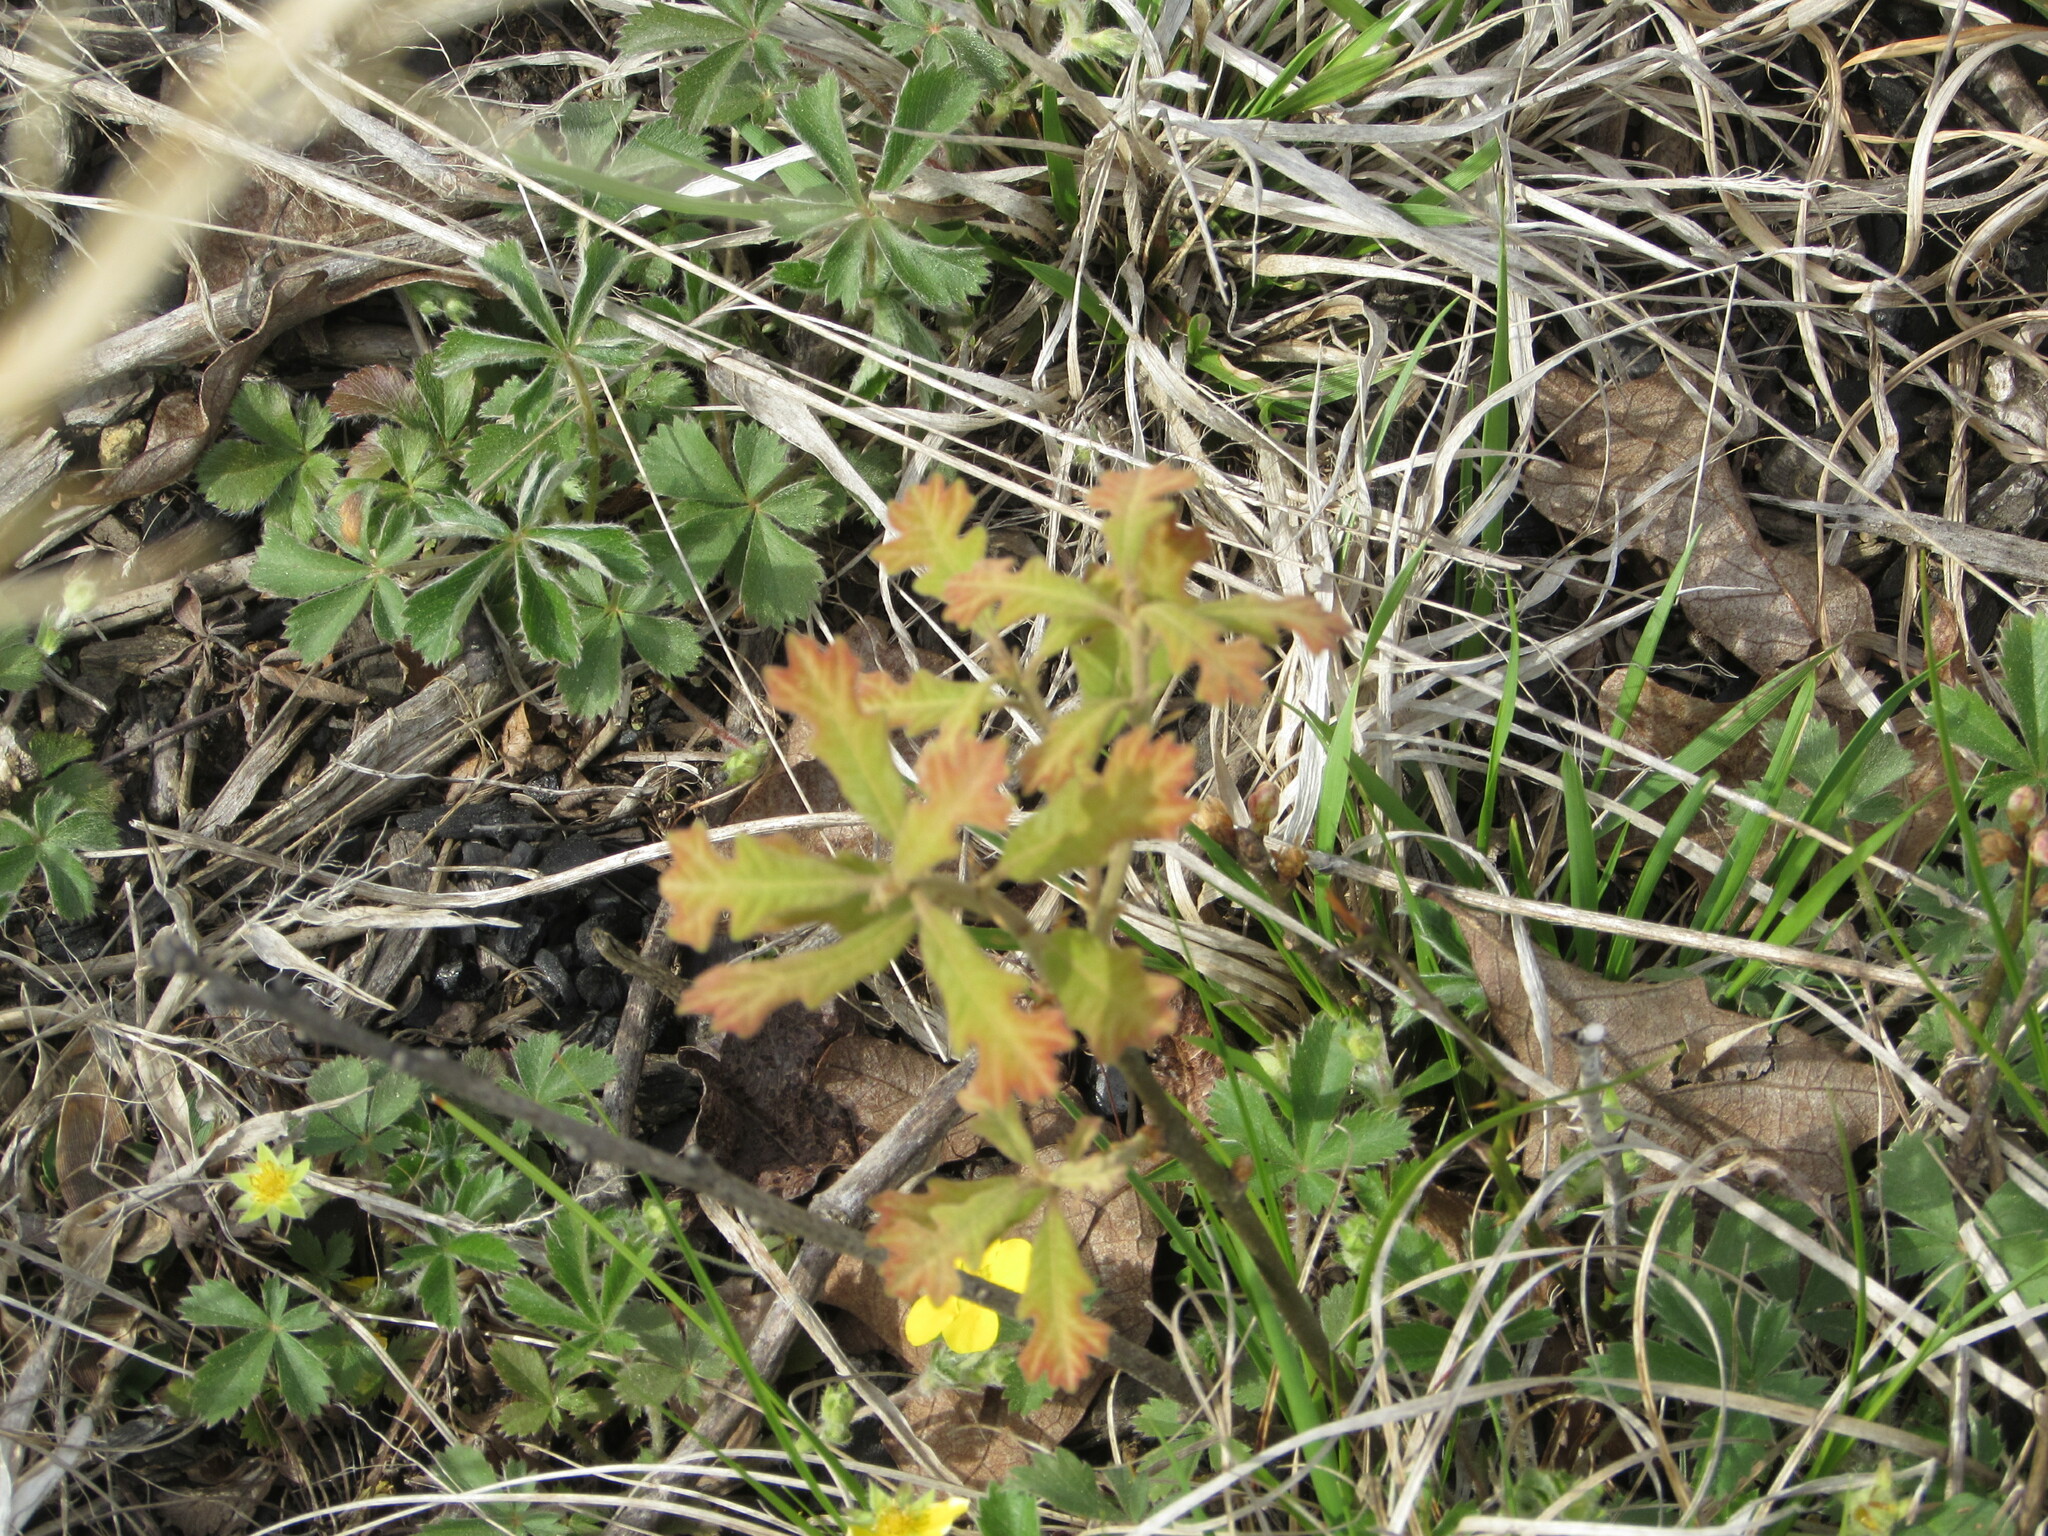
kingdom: Plantae
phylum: Tracheophyta
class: Magnoliopsida
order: Fagales
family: Fagaceae
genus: Quercus
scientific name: Quercus stellata
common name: Post oak
